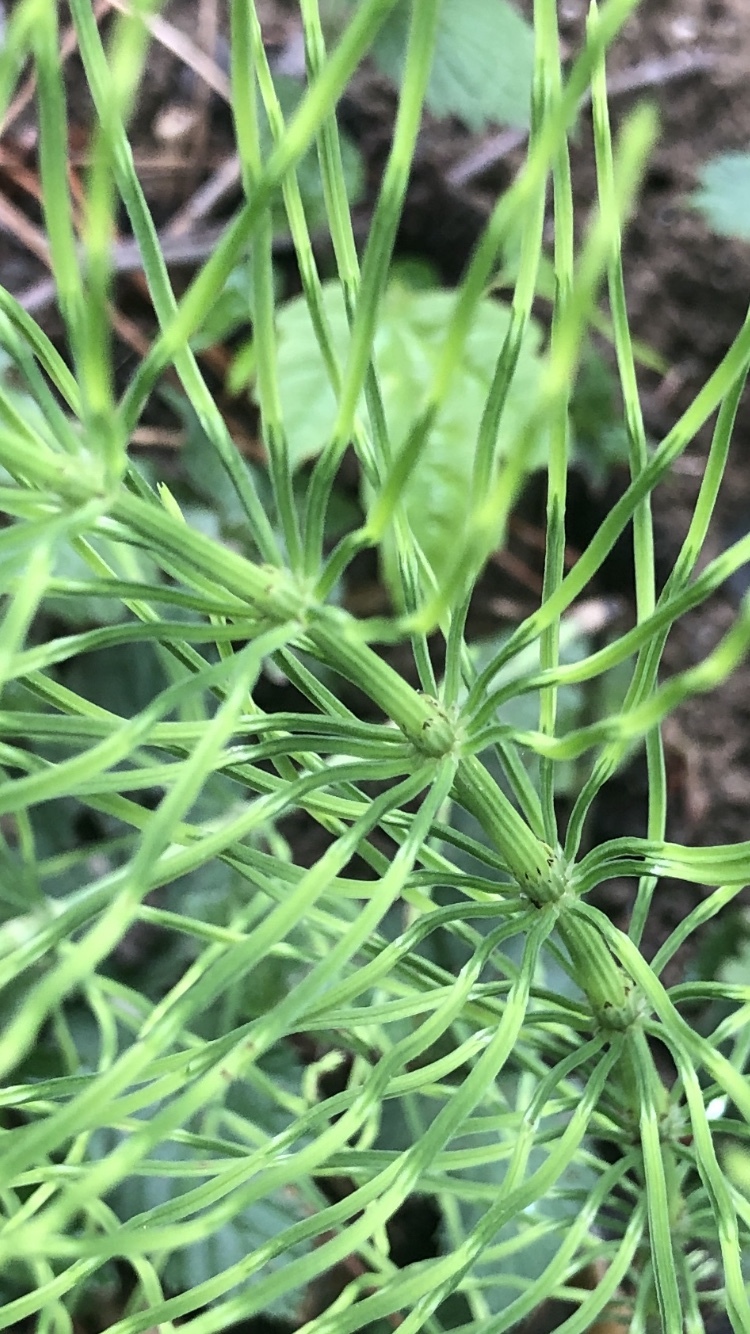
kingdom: Plantae
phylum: Tracheophyta
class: Polypodiopsida
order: Equisetales
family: Equisetaceae
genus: Equisetum
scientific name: Equisetum arvense
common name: Field horsetail
